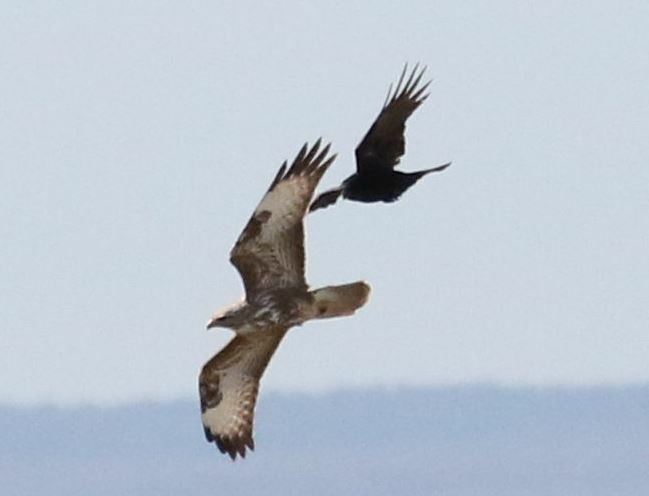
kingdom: Animalia
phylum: Chordata
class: Aves
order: Accipitriformes
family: Accipitridae
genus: Buteo
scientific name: Buteo buteo
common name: Common buzzard
